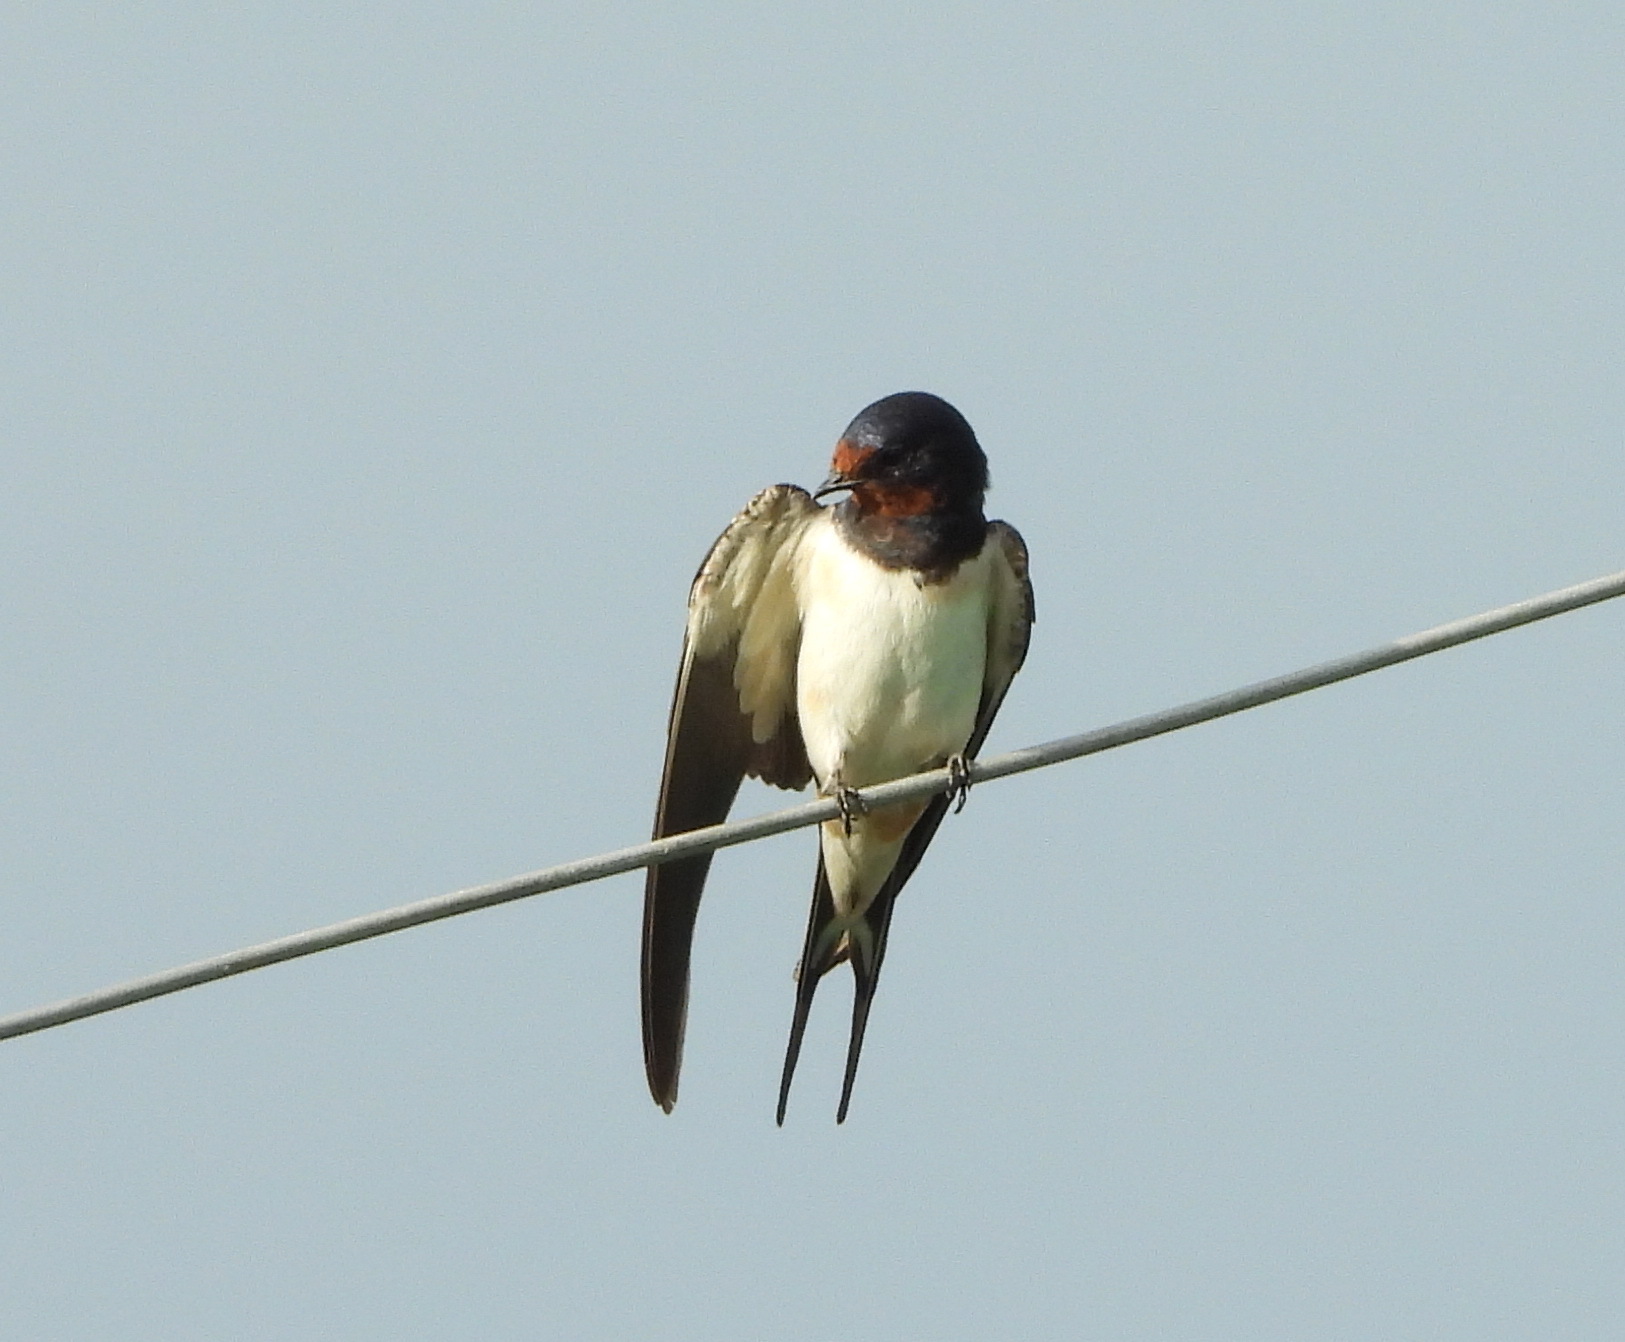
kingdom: Animalia
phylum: Chordata
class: Aves
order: Passeriformes
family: Hirundinidae
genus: Hirundo
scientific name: Hirundo rustica
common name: Barn swallow
